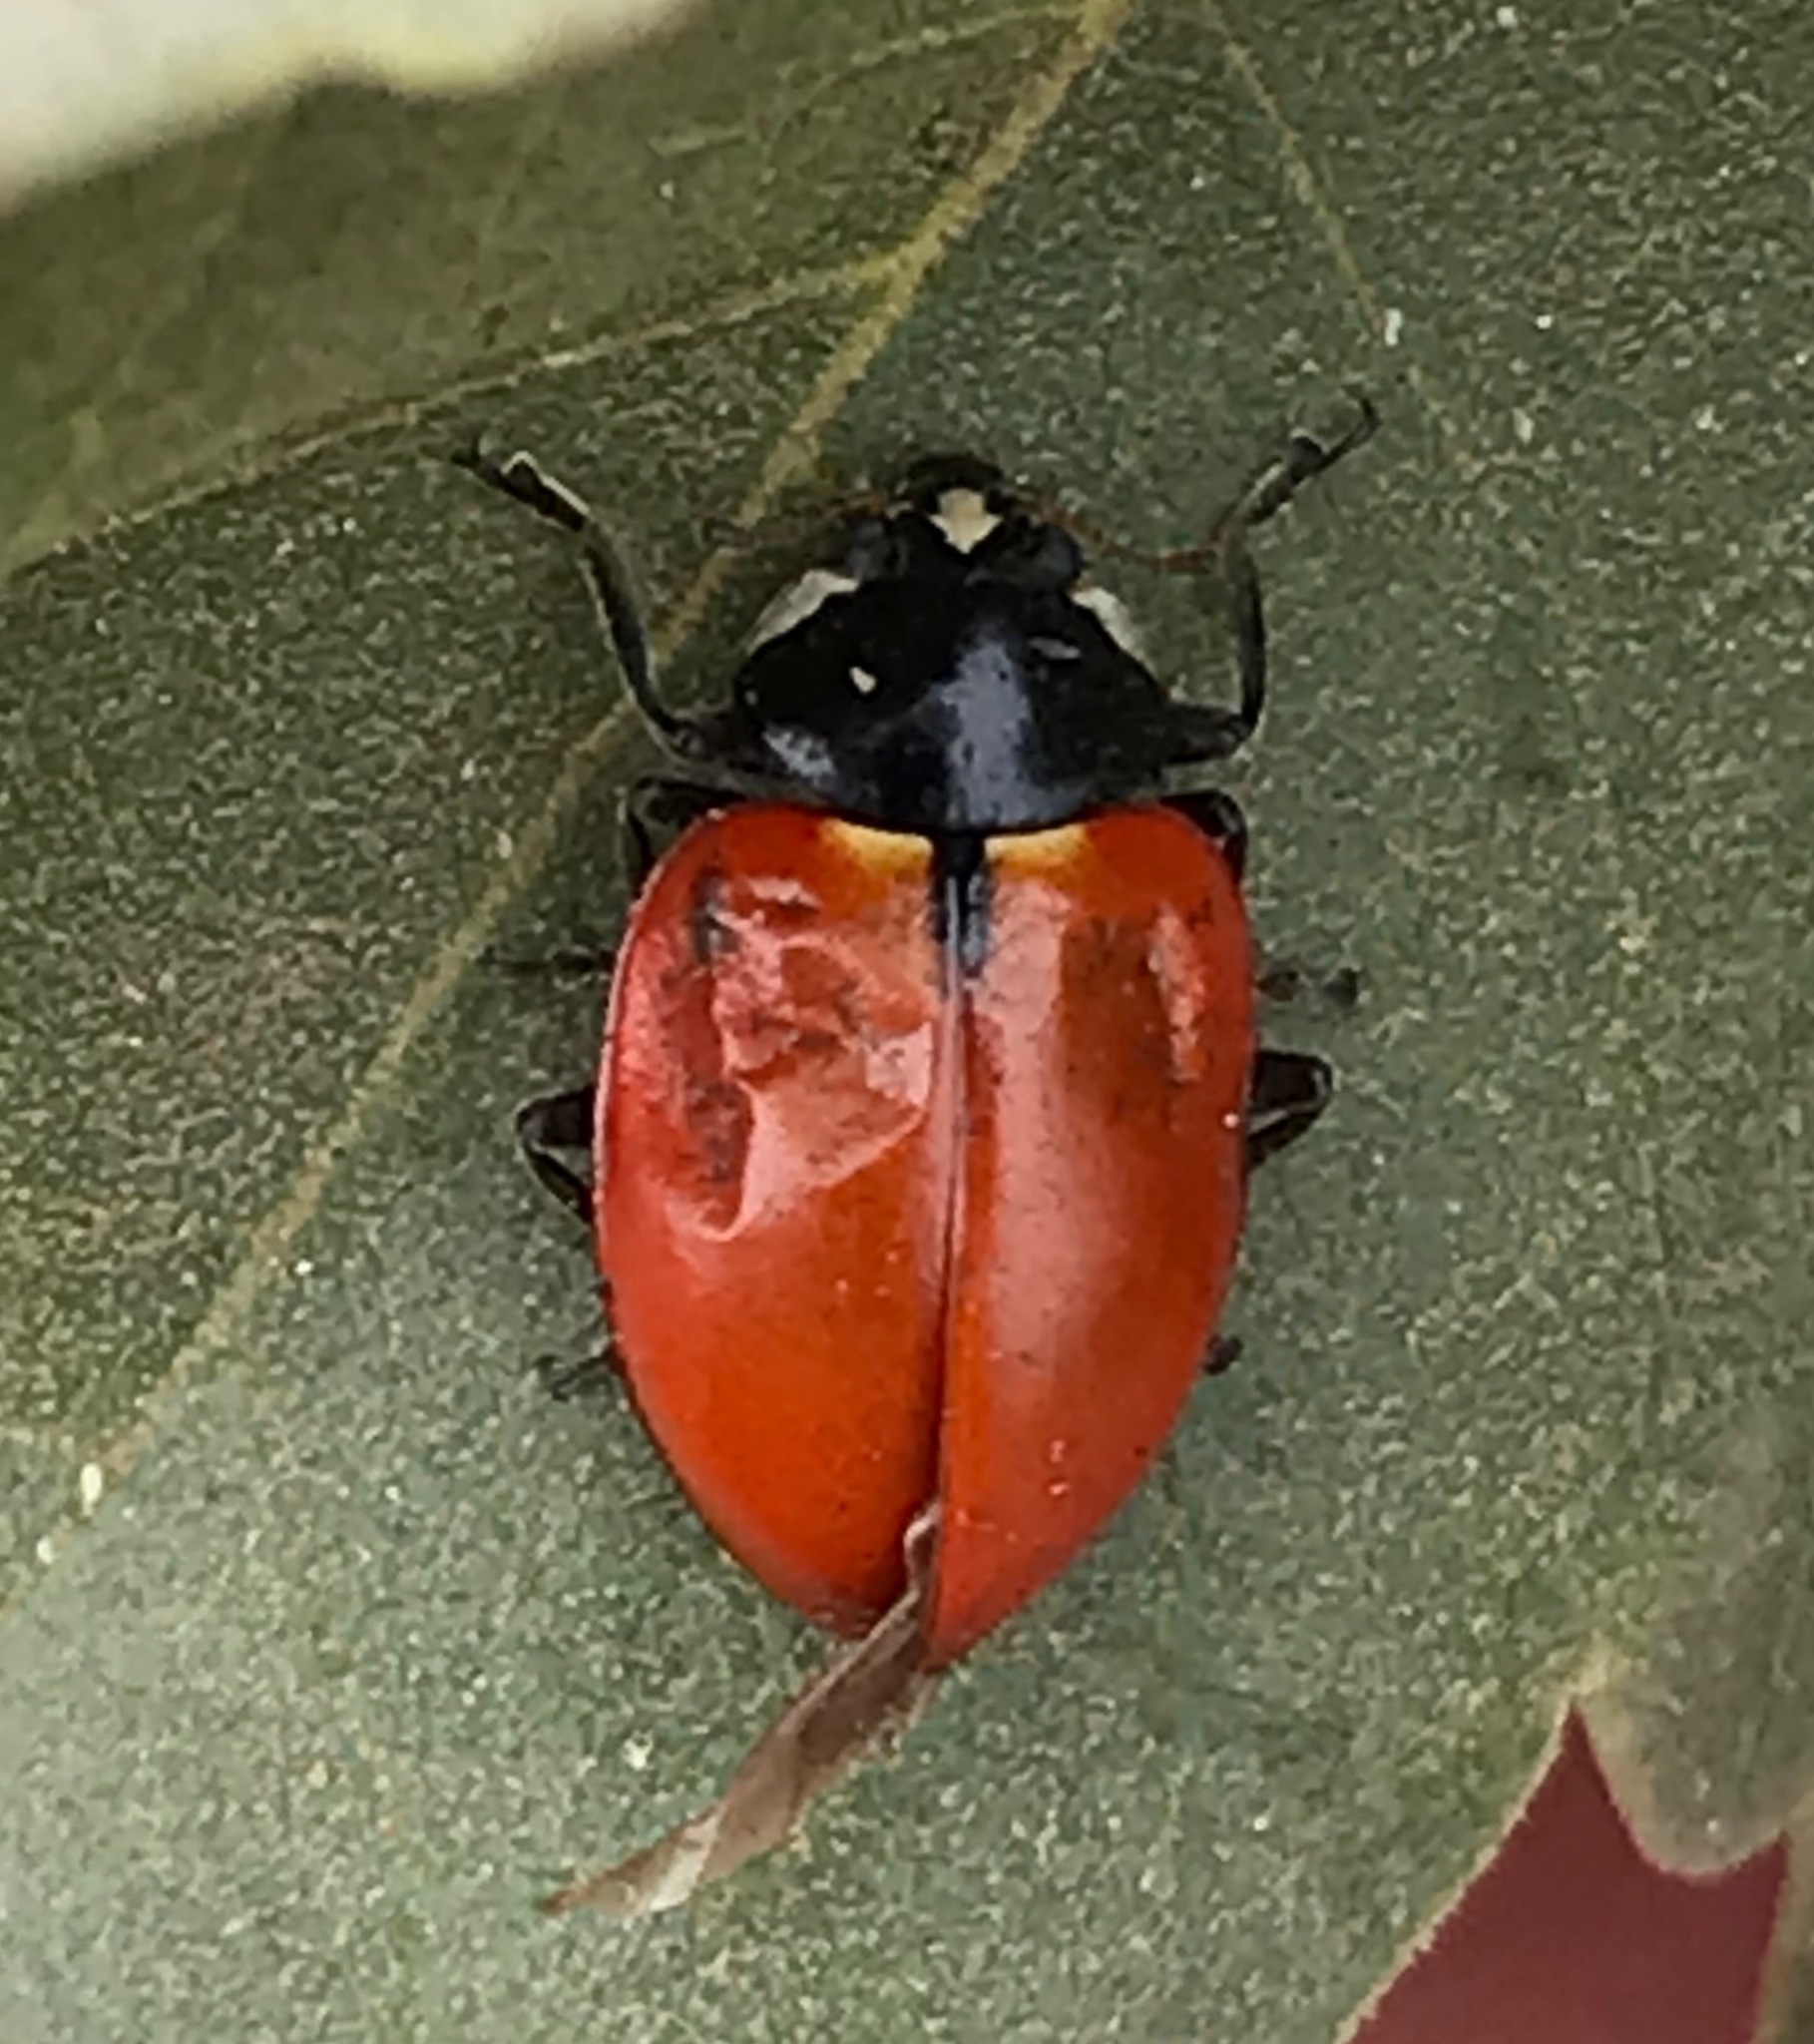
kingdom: Animalia
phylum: Arthropoda
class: Insecta
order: Coleoptera
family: Coccinellidae
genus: Hippodamia
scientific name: Hippodamia quinquesignata
